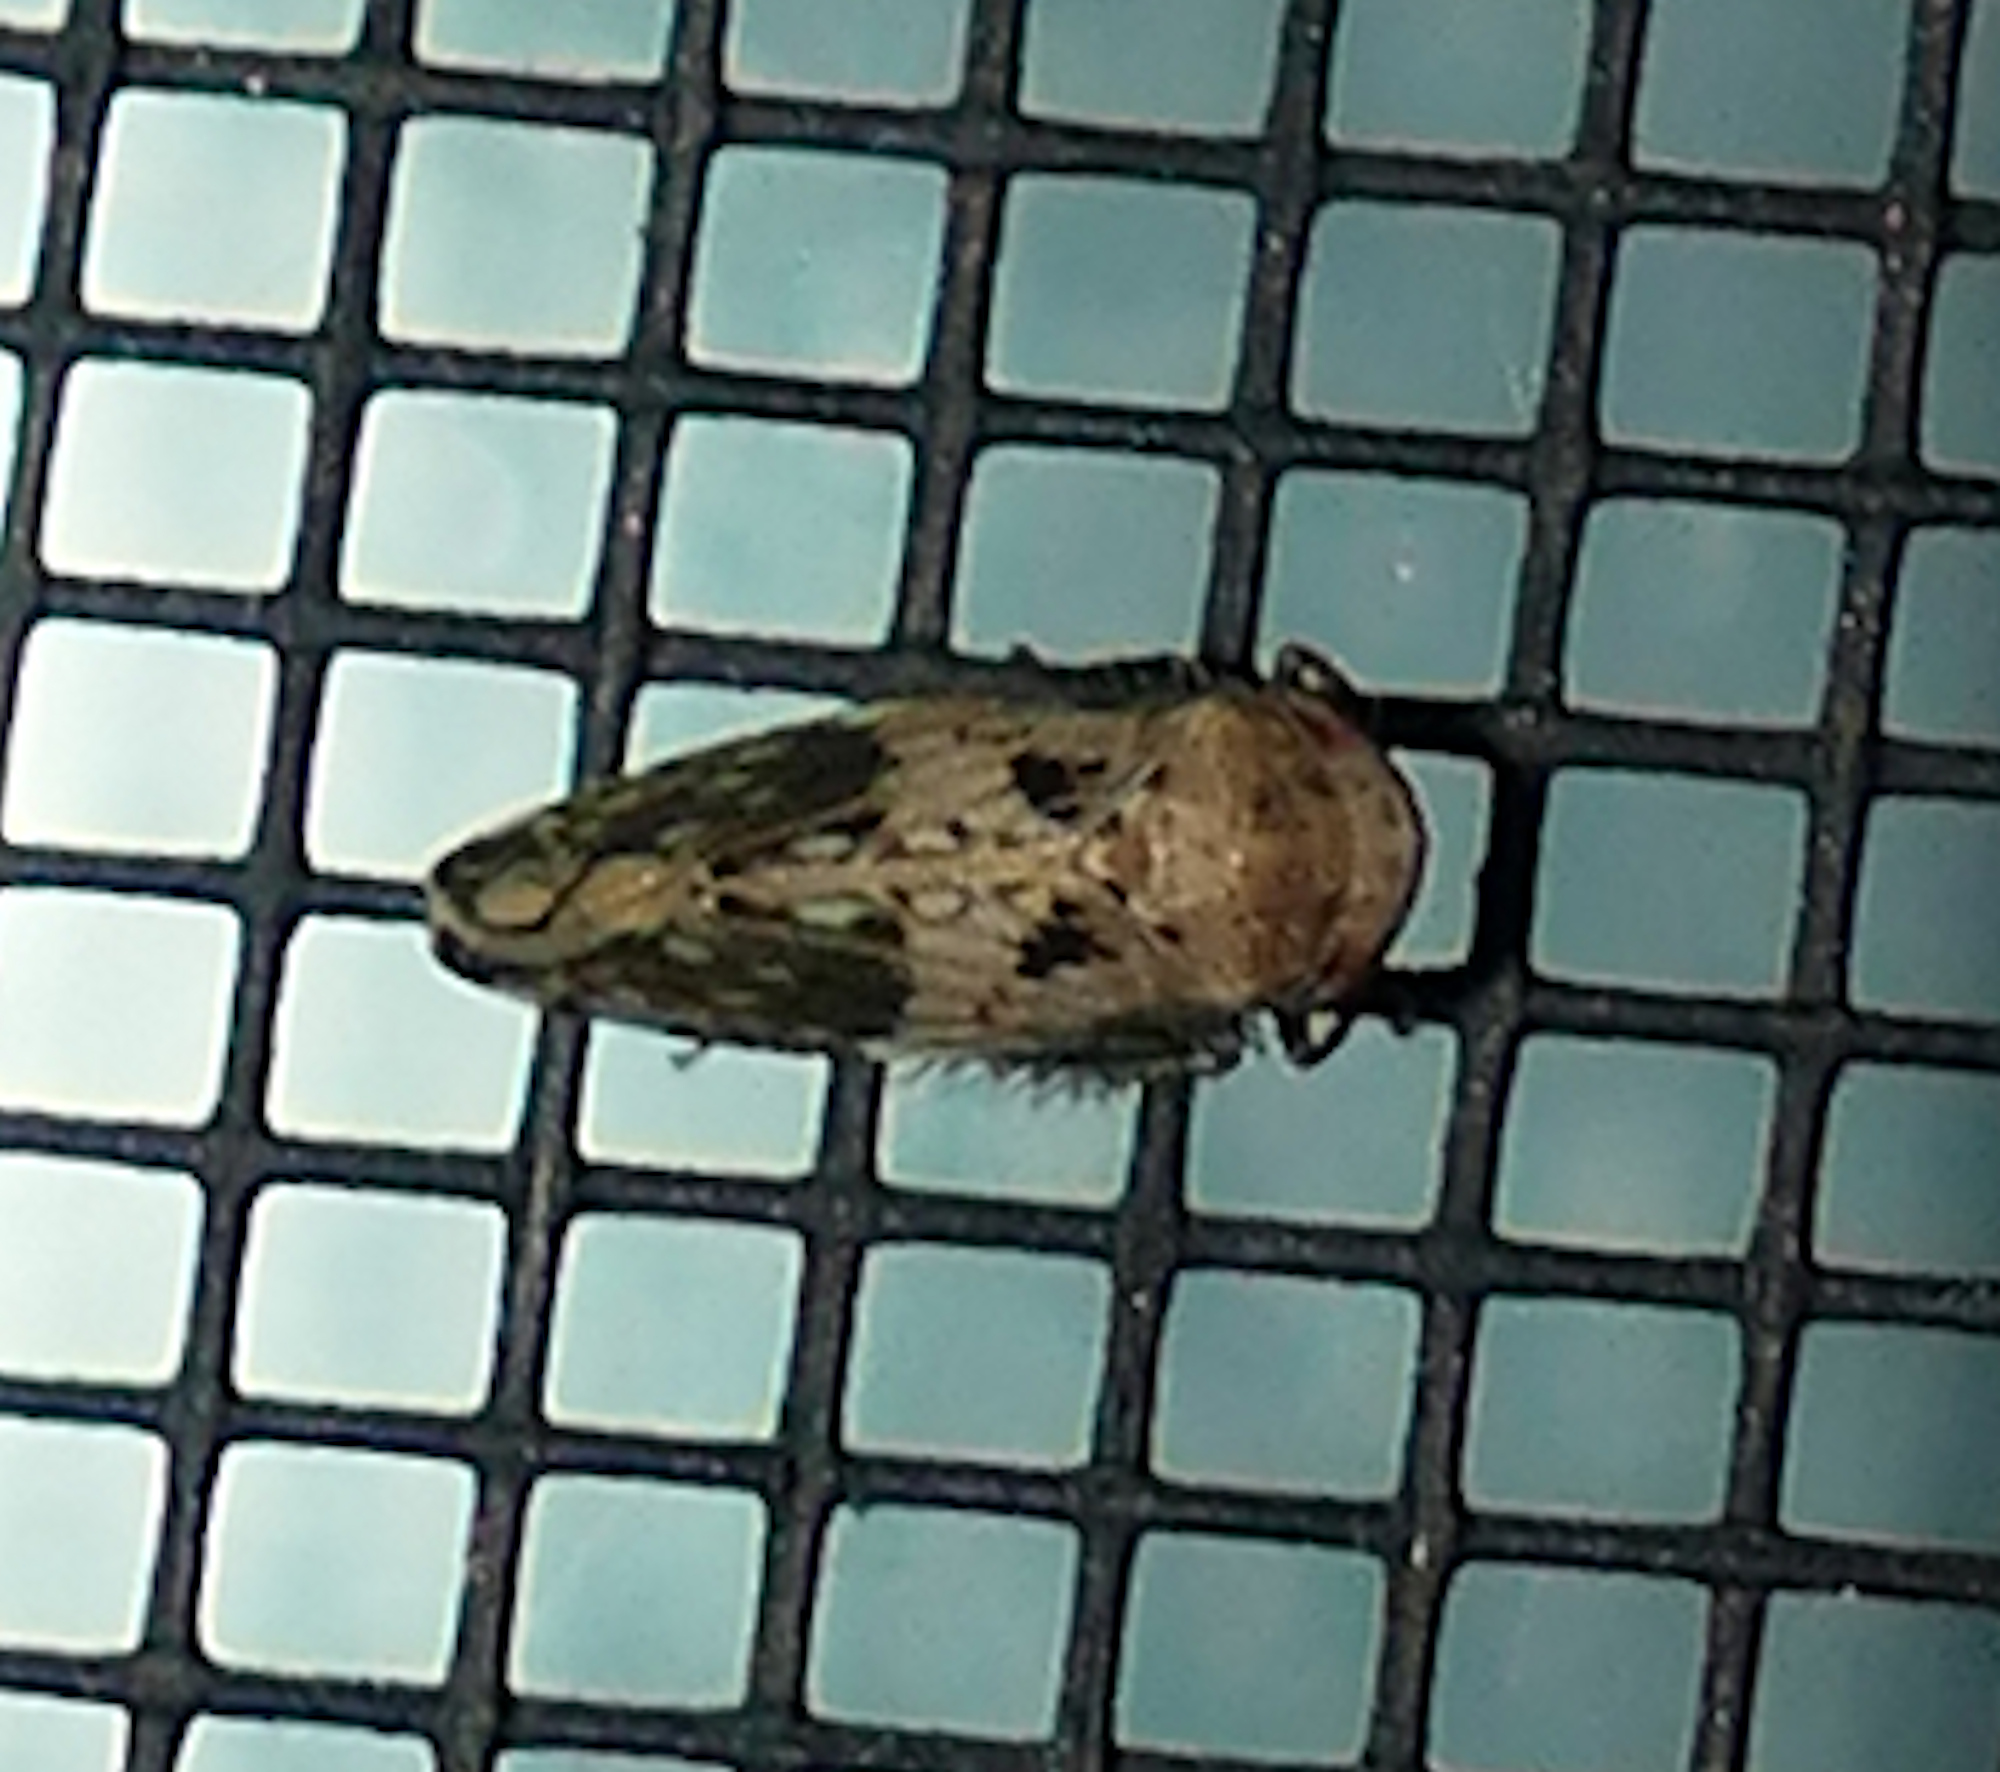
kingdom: Animalia
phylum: Arthropoda
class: Insecta
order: Hemiptera
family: Cicadellidae
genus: Menosoma
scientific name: Menosoma cinctum
